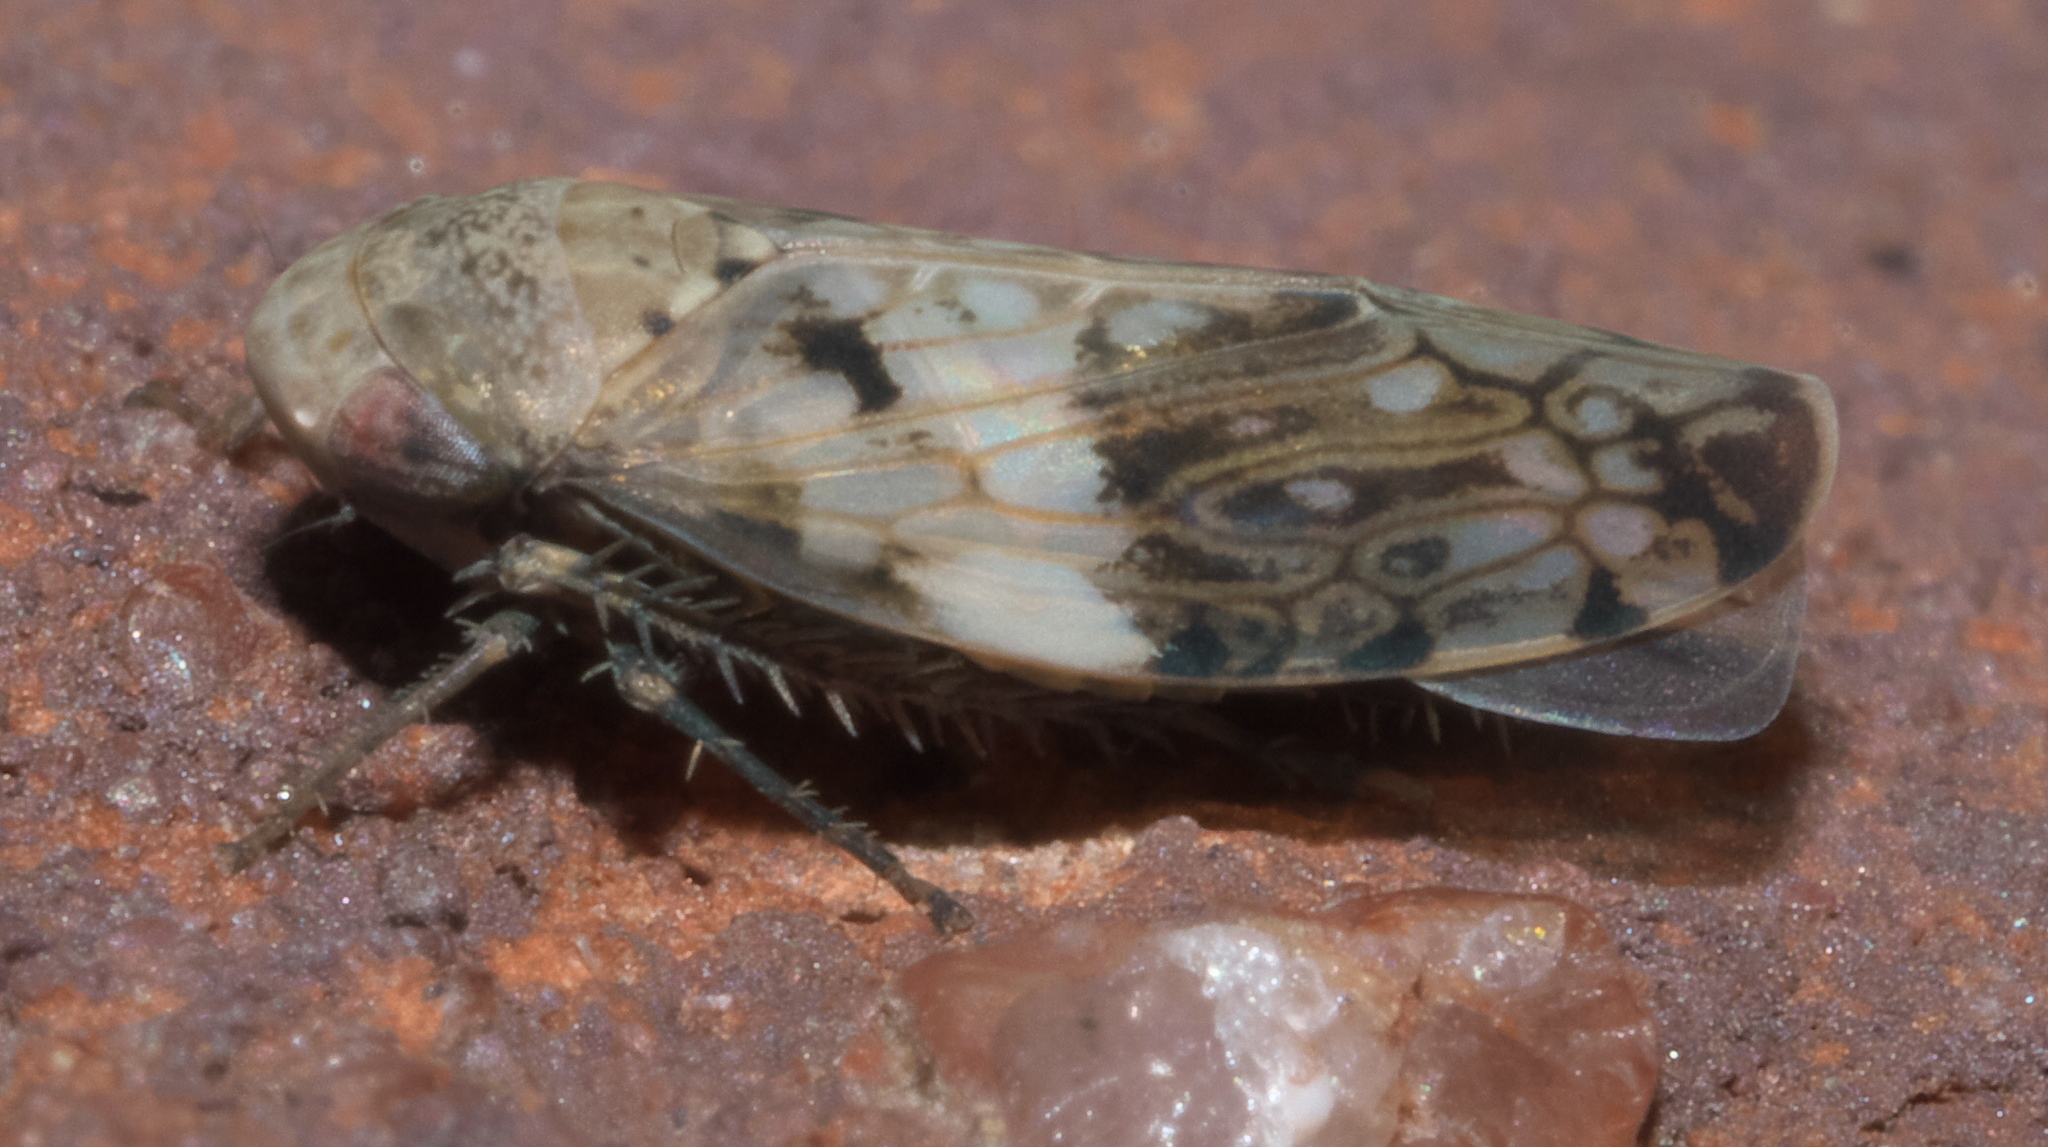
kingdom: Animalia
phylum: Arthropoda
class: Insecta
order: Hemiptera
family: Cicadellidae
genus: Menosoma
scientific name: Menosoma cinctum
